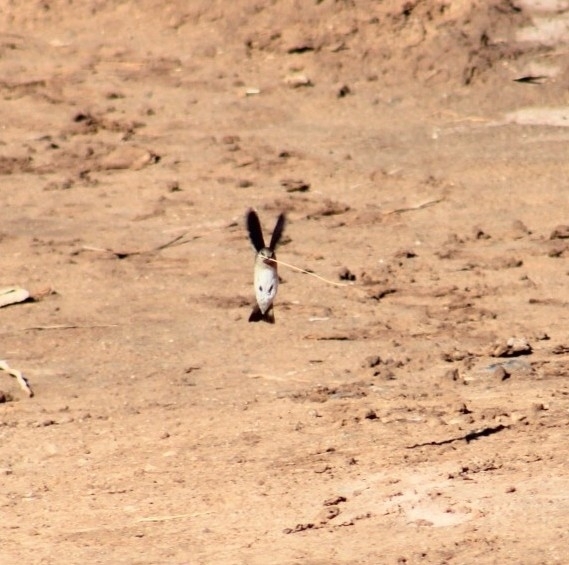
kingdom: Animalia
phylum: Chordata
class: Aves
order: Passeriformes
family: Hirundinidae
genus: Stelgidopteryx
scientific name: Stelgidopteryx serripennis
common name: Northern rough-winged swallow
